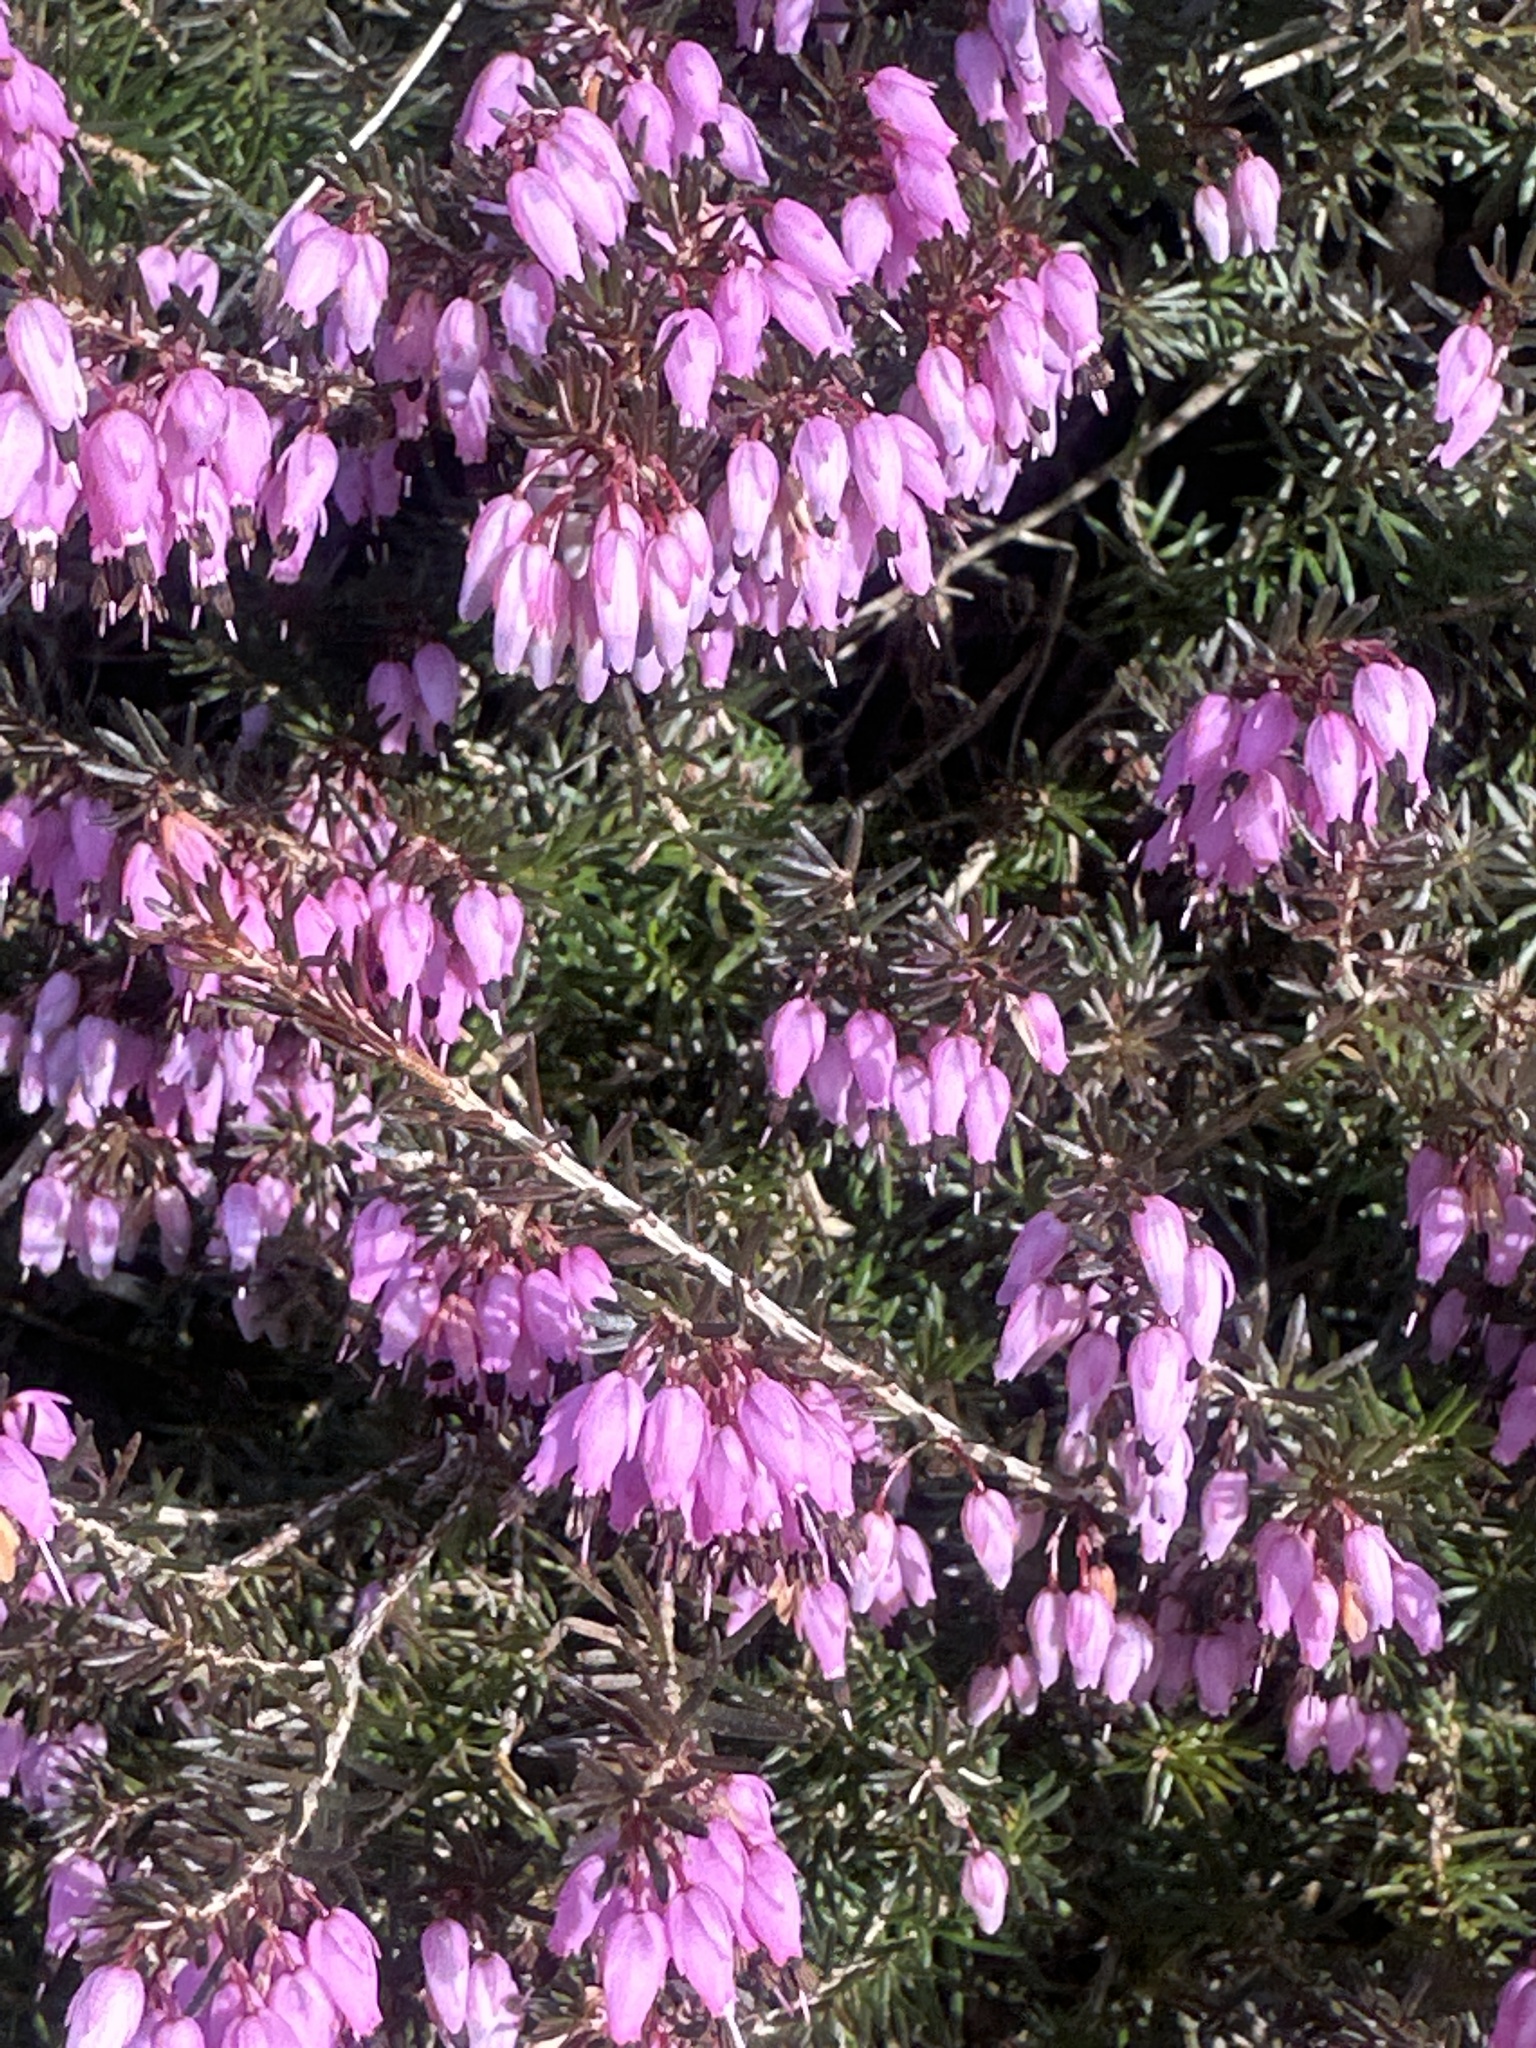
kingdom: Plantae
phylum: Tracheophyta
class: Magnoliopsida
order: Ericales
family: Ericaceae
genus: Erica
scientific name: Erica carnea
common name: Winter heath
